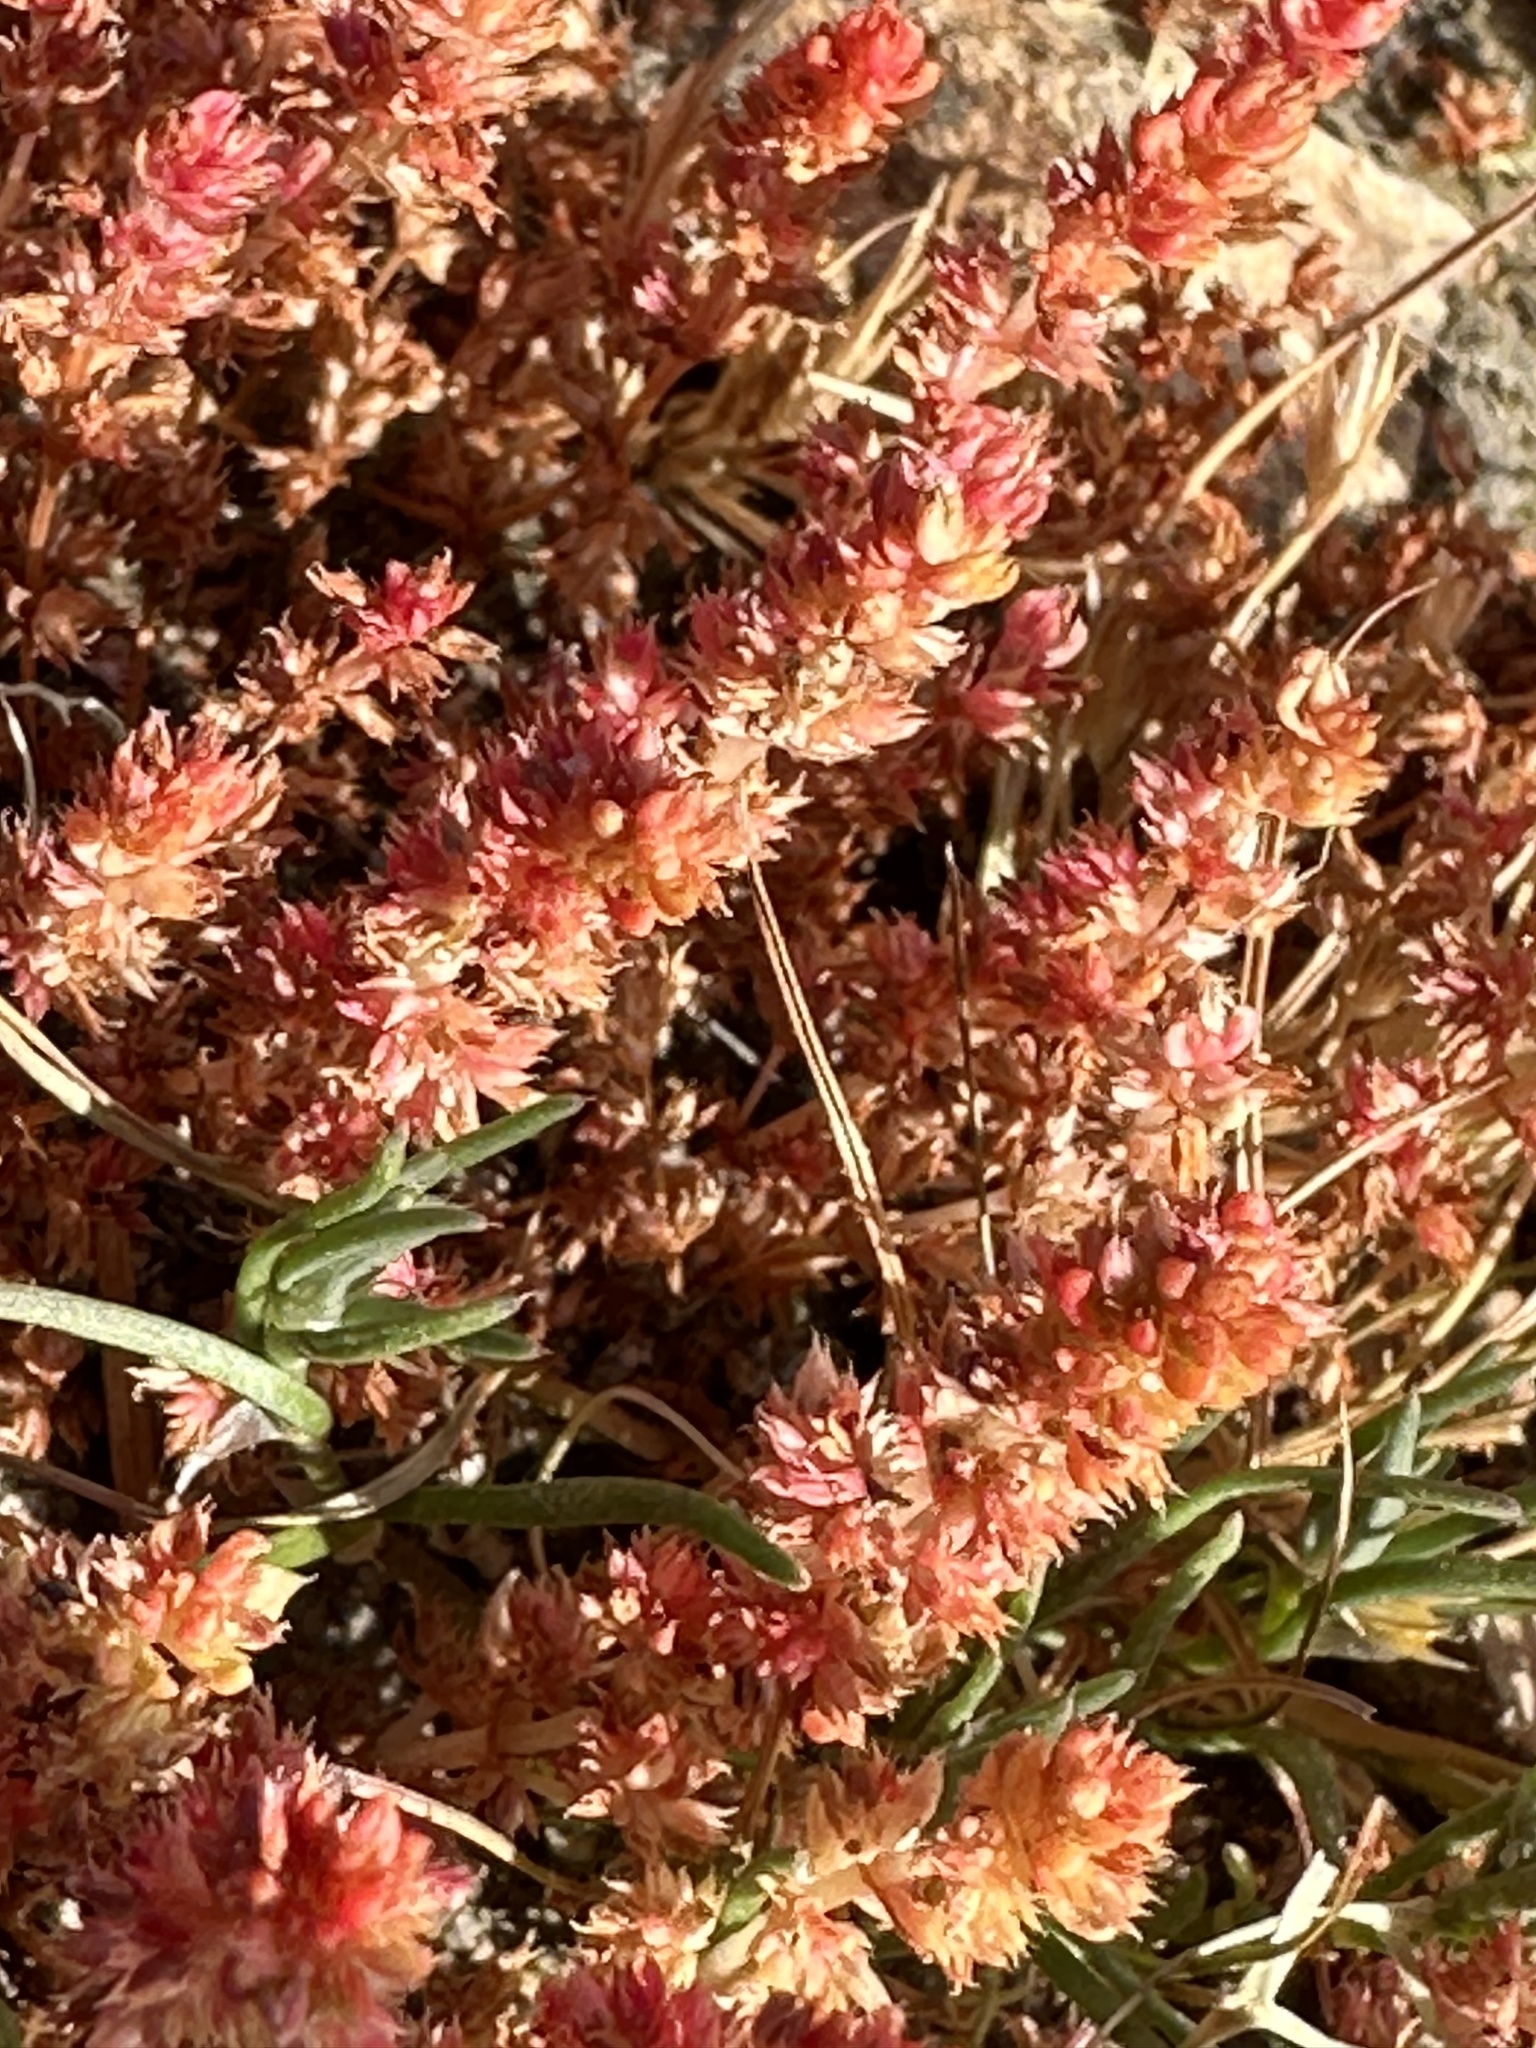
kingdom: Plantae
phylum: Tracheophyta
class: Magnoliopsida
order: Saxifragales
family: Crassulaceae
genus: Crassula
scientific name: Crassula tillaea
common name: Mossy stonecrop
